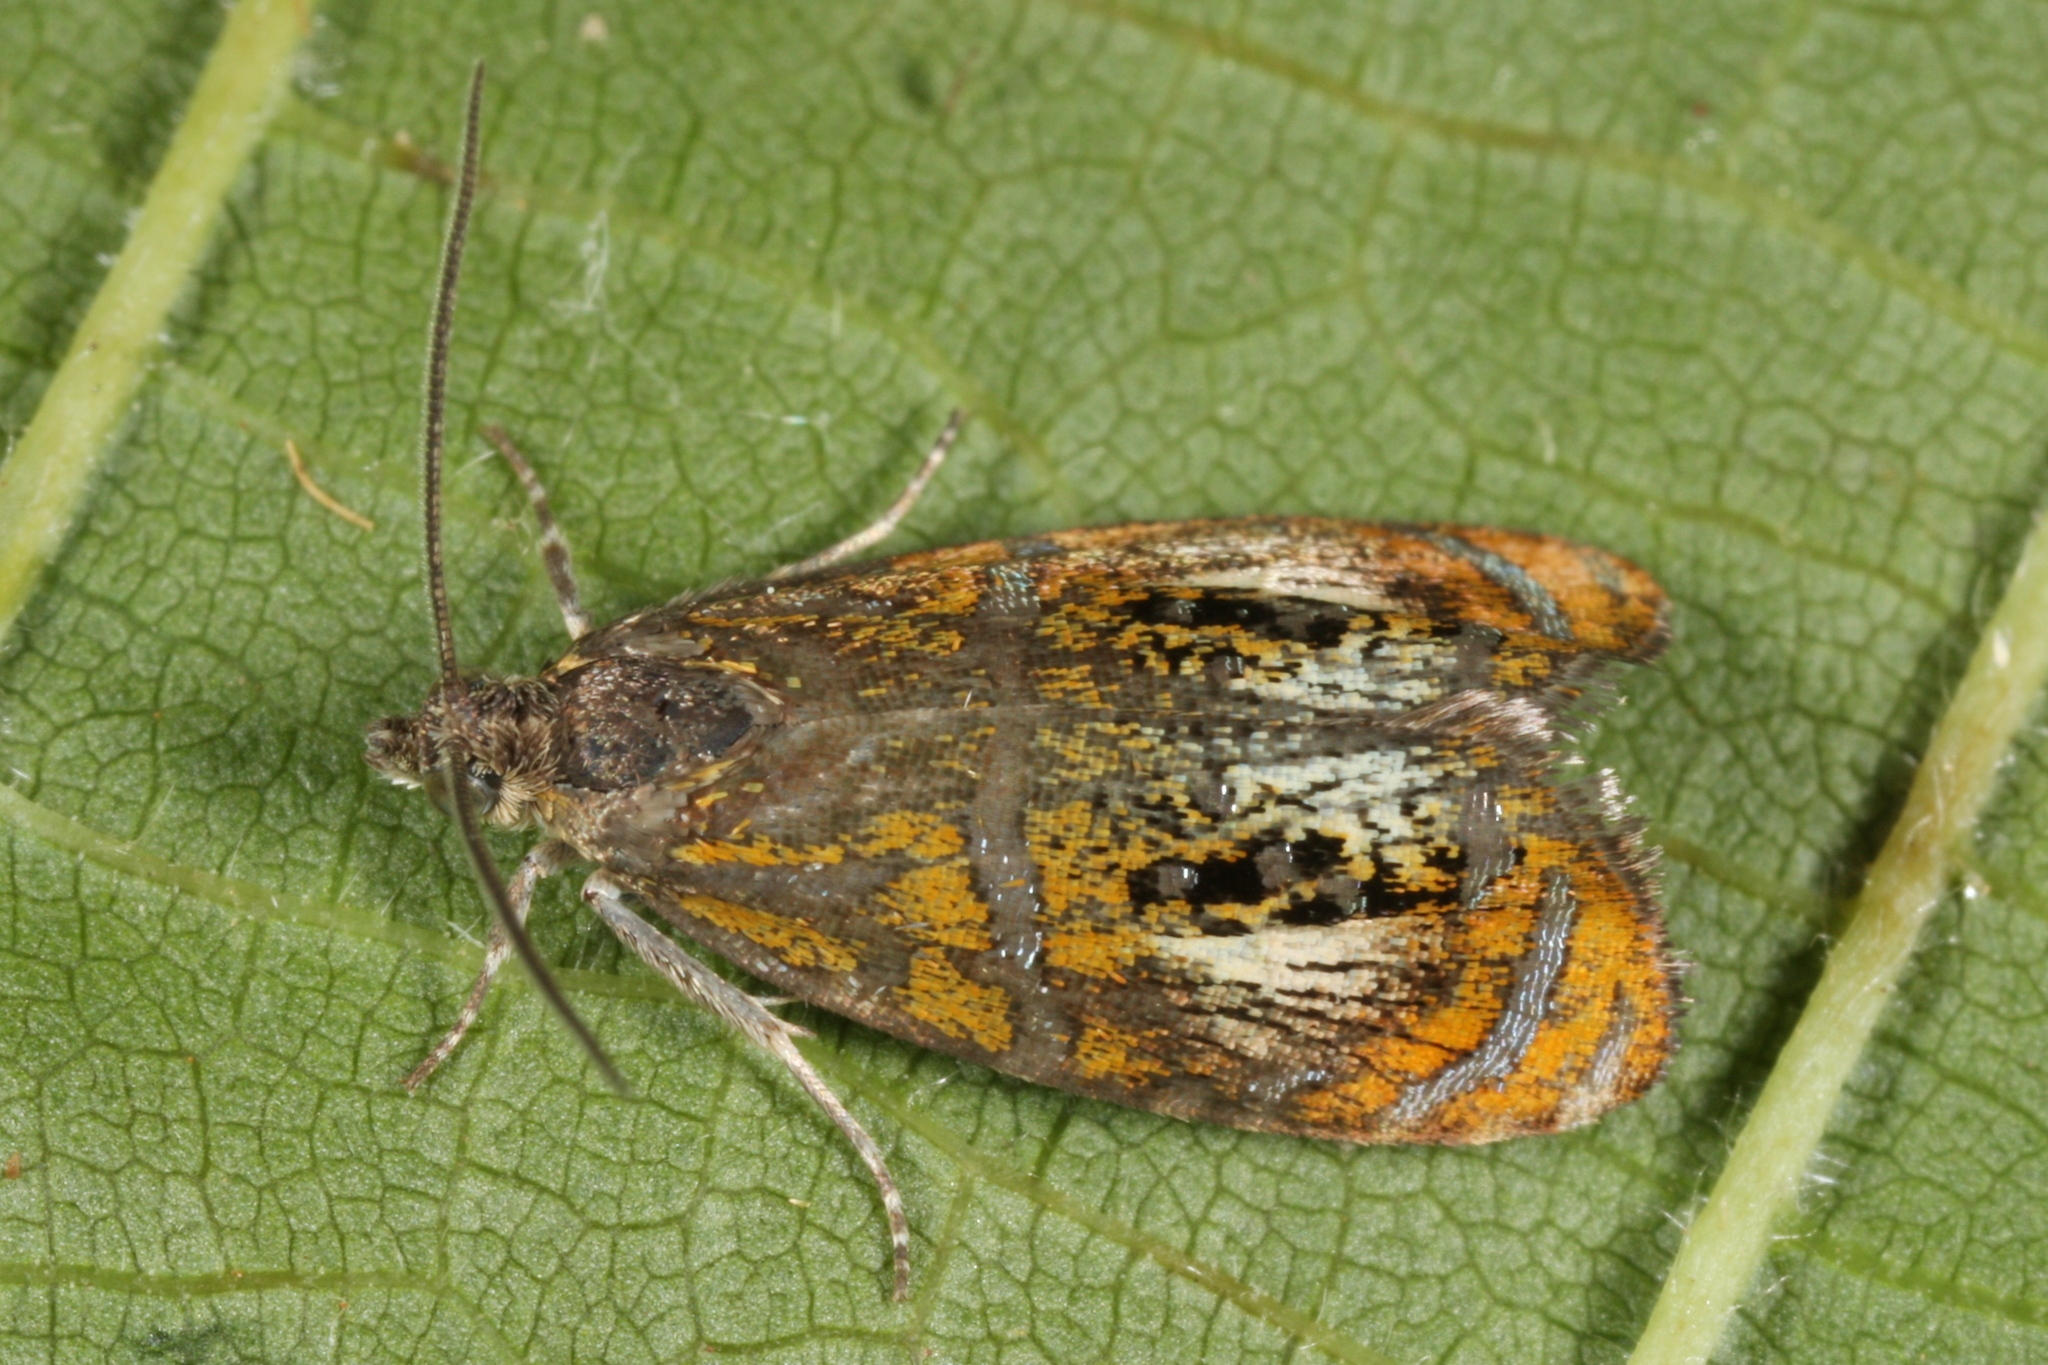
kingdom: Animalia
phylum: Arthropoda
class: Insecta
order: Lepidoptera
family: Tortricidae
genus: Olethreutes
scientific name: Olethreutes arcuella
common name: Arched marble
